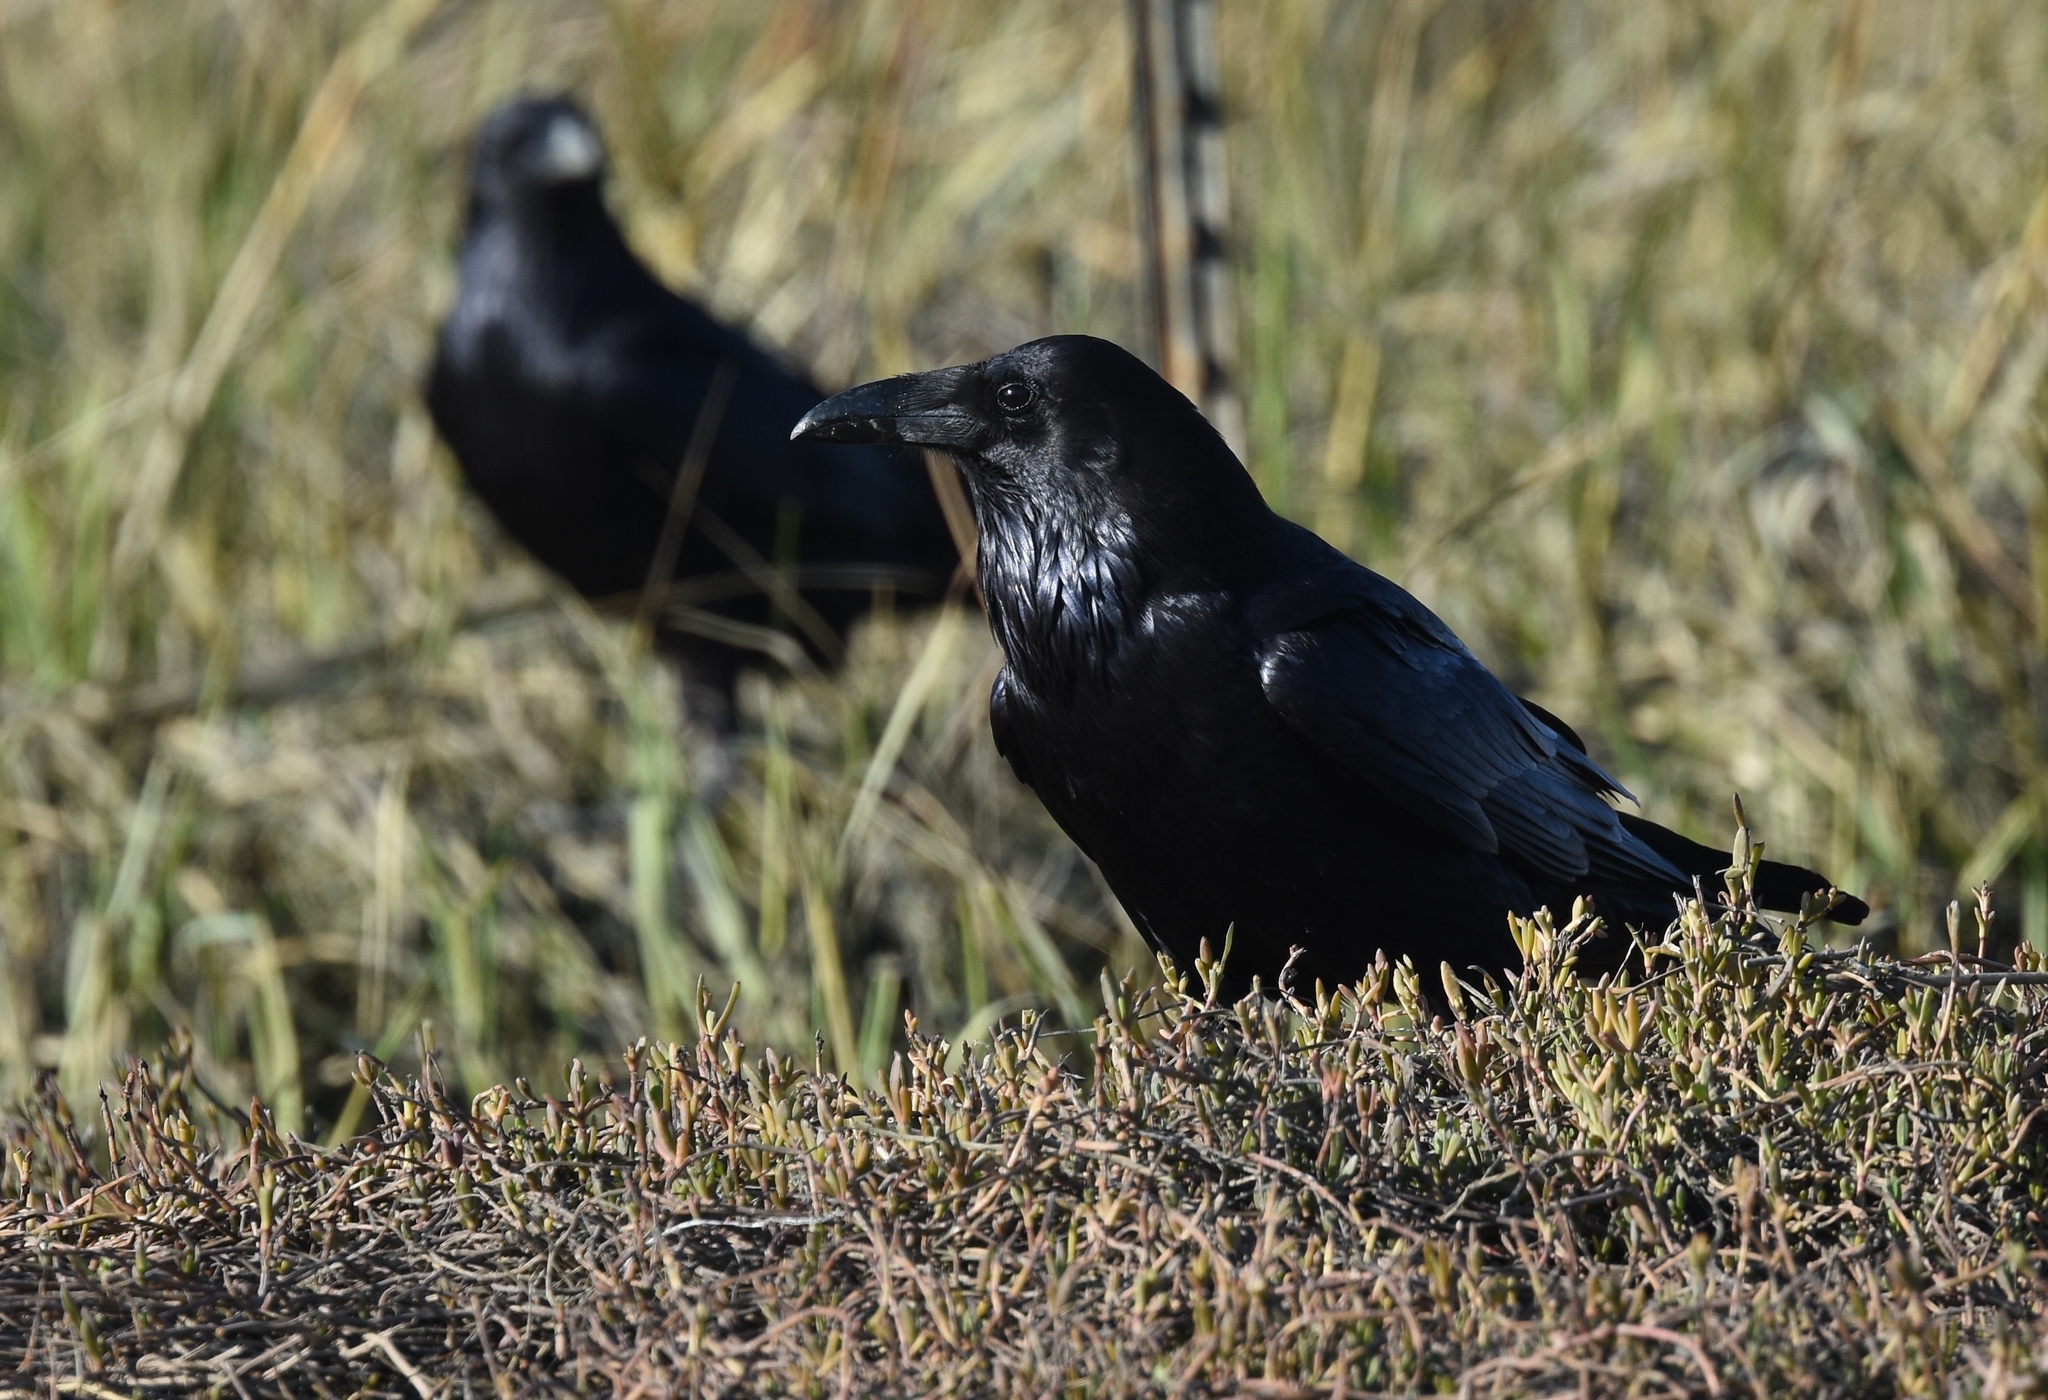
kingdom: Animalia
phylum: Chordata
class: Aves
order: Passeriformes
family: Corvidae
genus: Corvus
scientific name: Corvus corax
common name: Common raven
